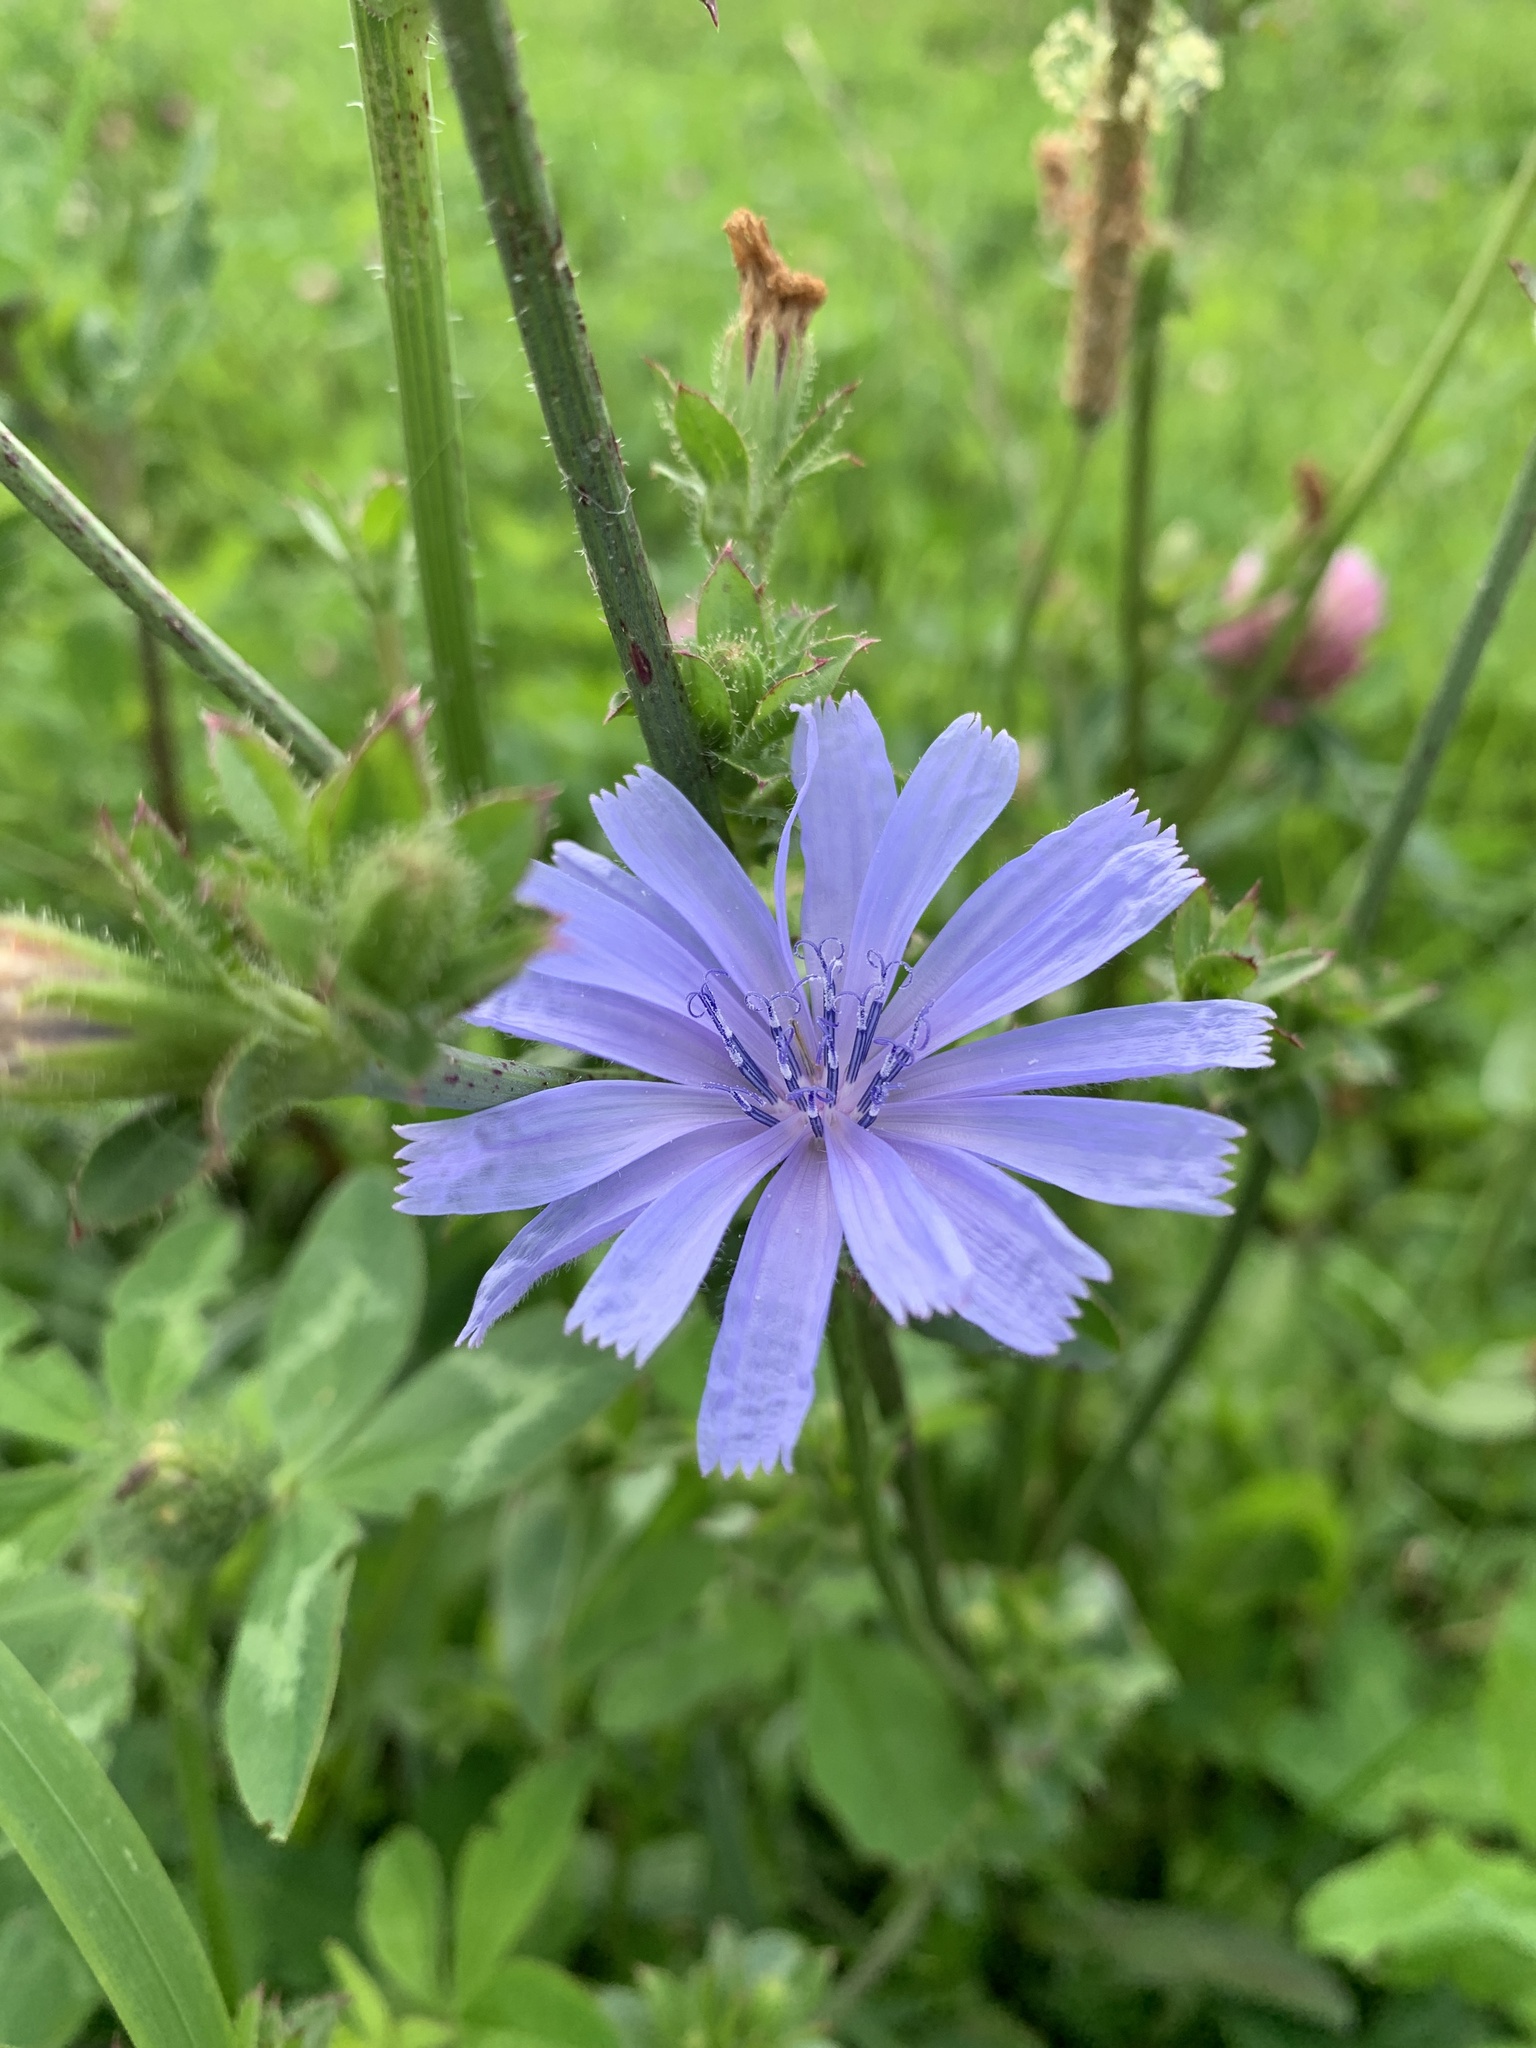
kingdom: Plantae
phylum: Tracheophyta
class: Magnoliopsida
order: Asterales
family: Asteraceae
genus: Cichorium
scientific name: Cichorium intybus
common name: Chicory
